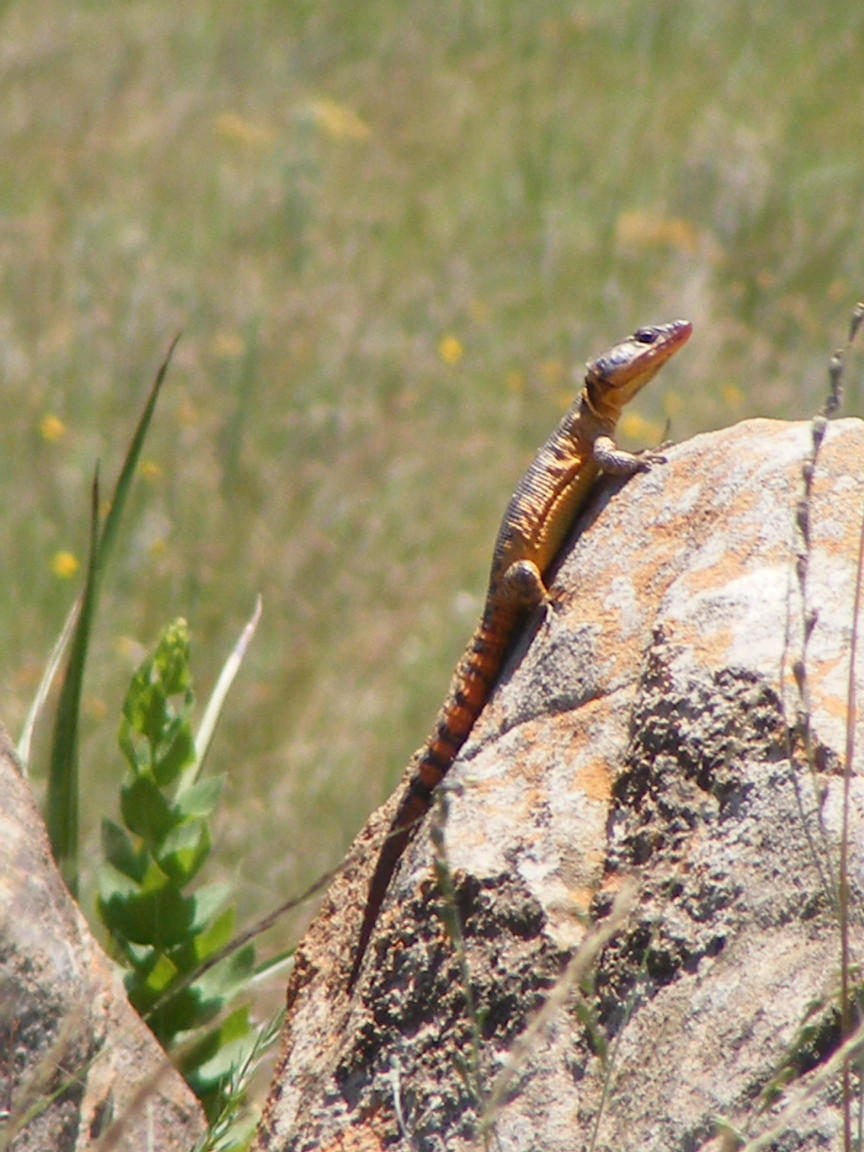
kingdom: Animalia
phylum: Chordata
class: Squamata
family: Cordylidae
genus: Pseudocordylus
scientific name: Pseudocordylus melanotus
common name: Highveld crag lizard
